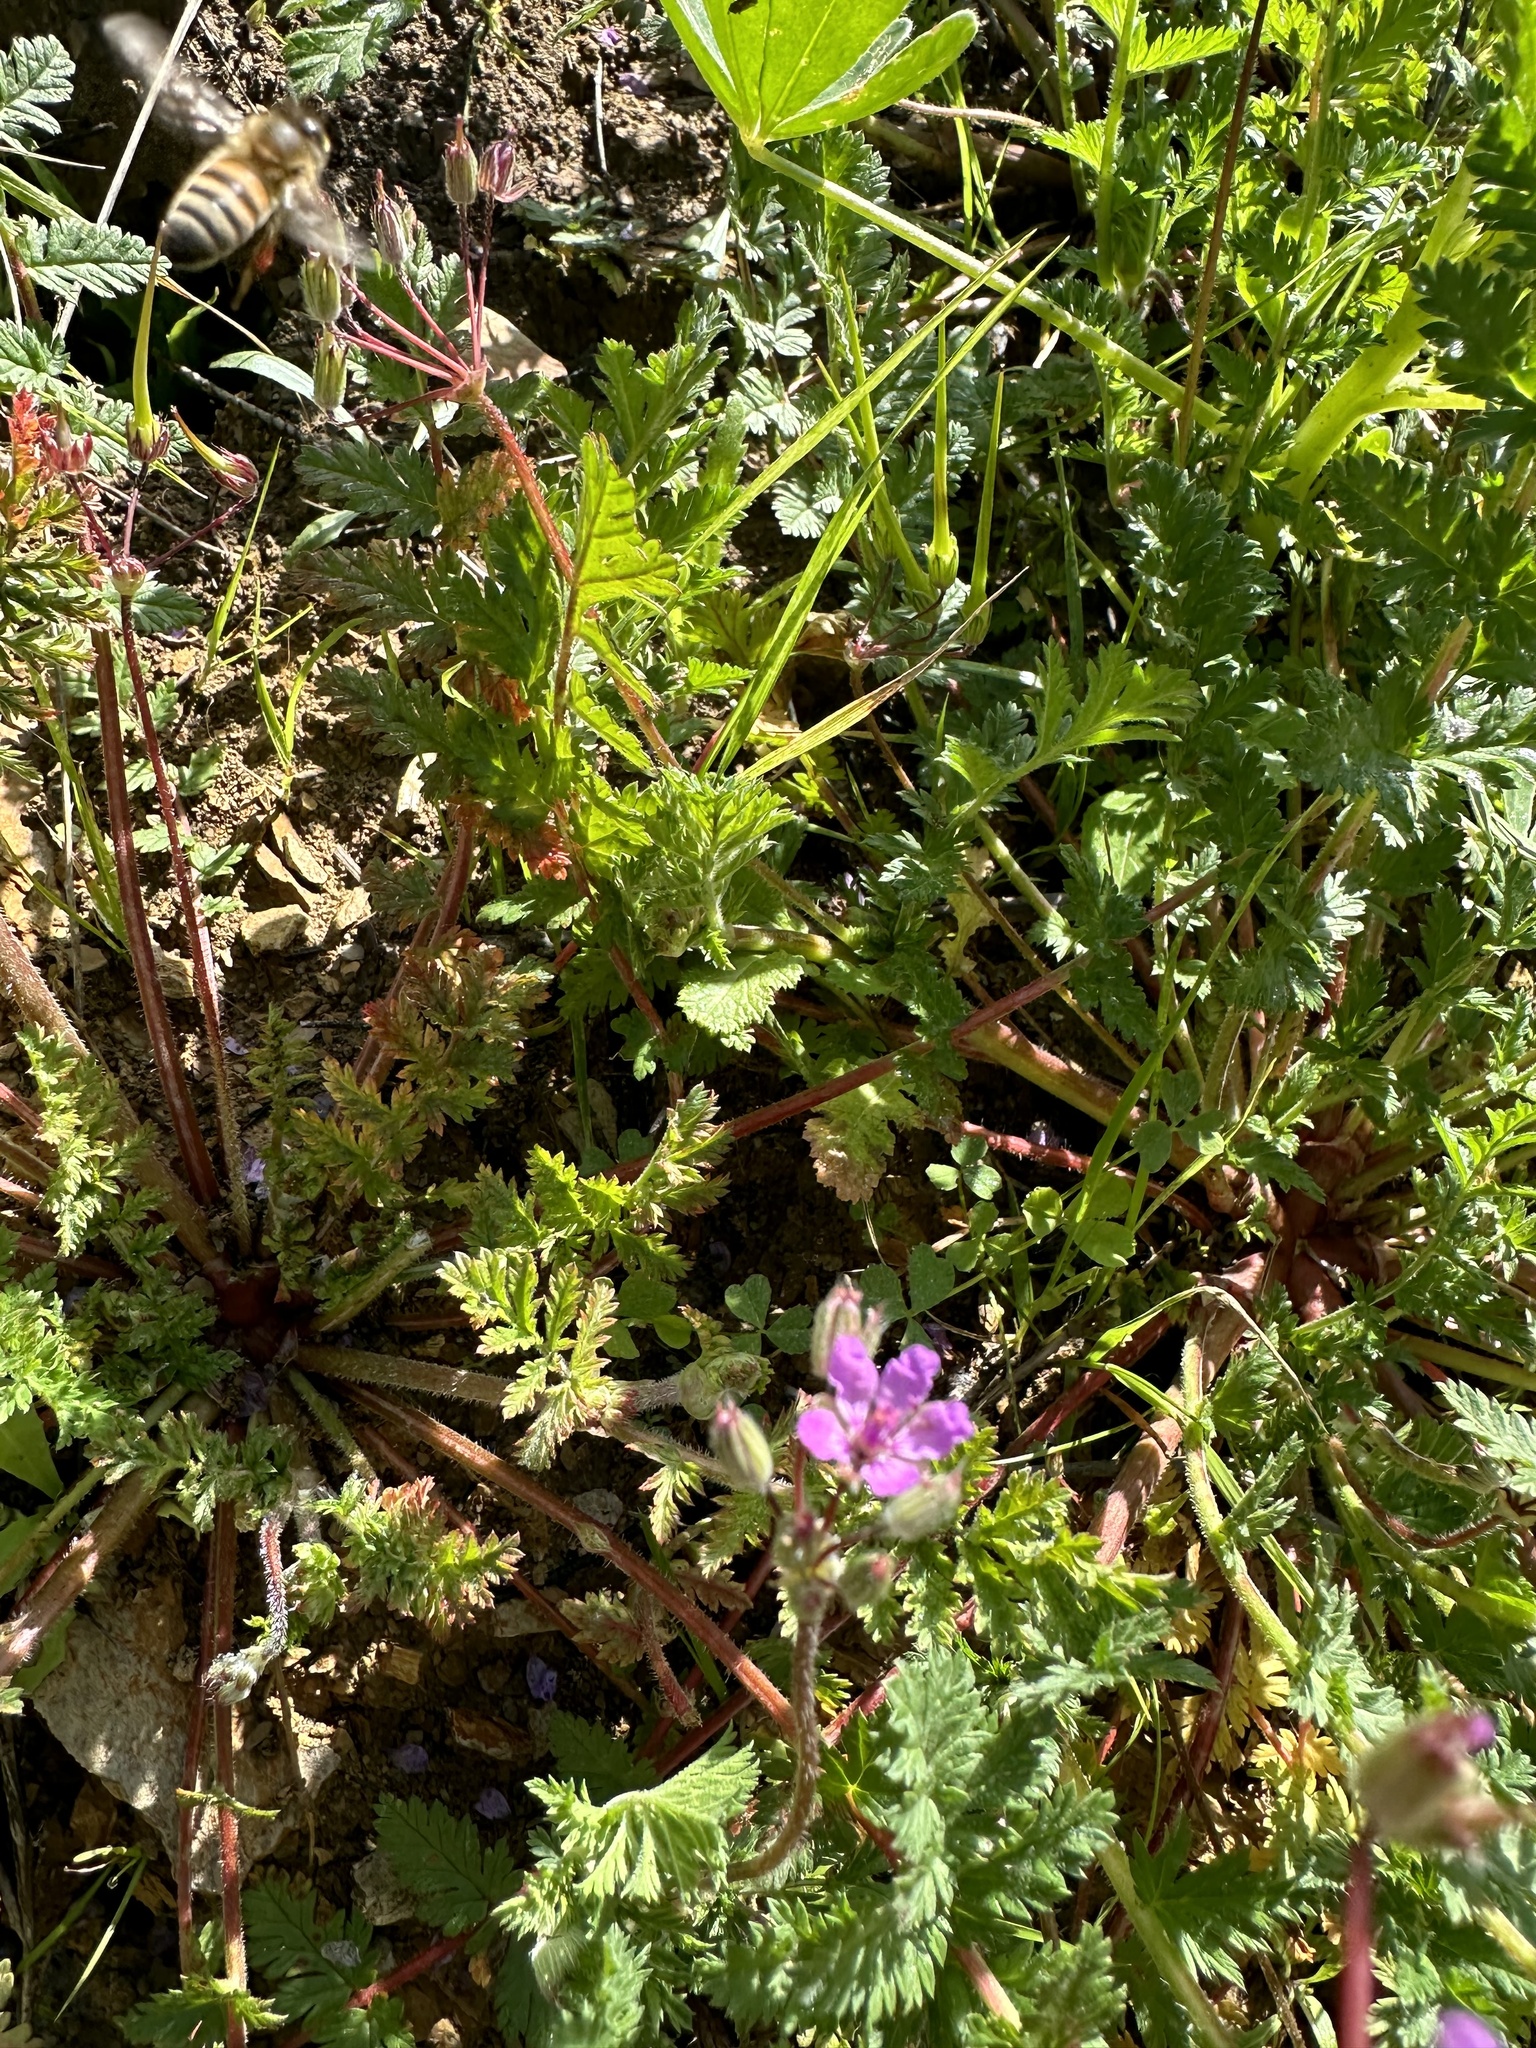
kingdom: Plantae
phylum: Tracheophyta
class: Magnoliopsida
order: Geraniales
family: Geraniaceae
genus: Erodium
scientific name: Erodium cicutarium
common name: Common stork's-bill
